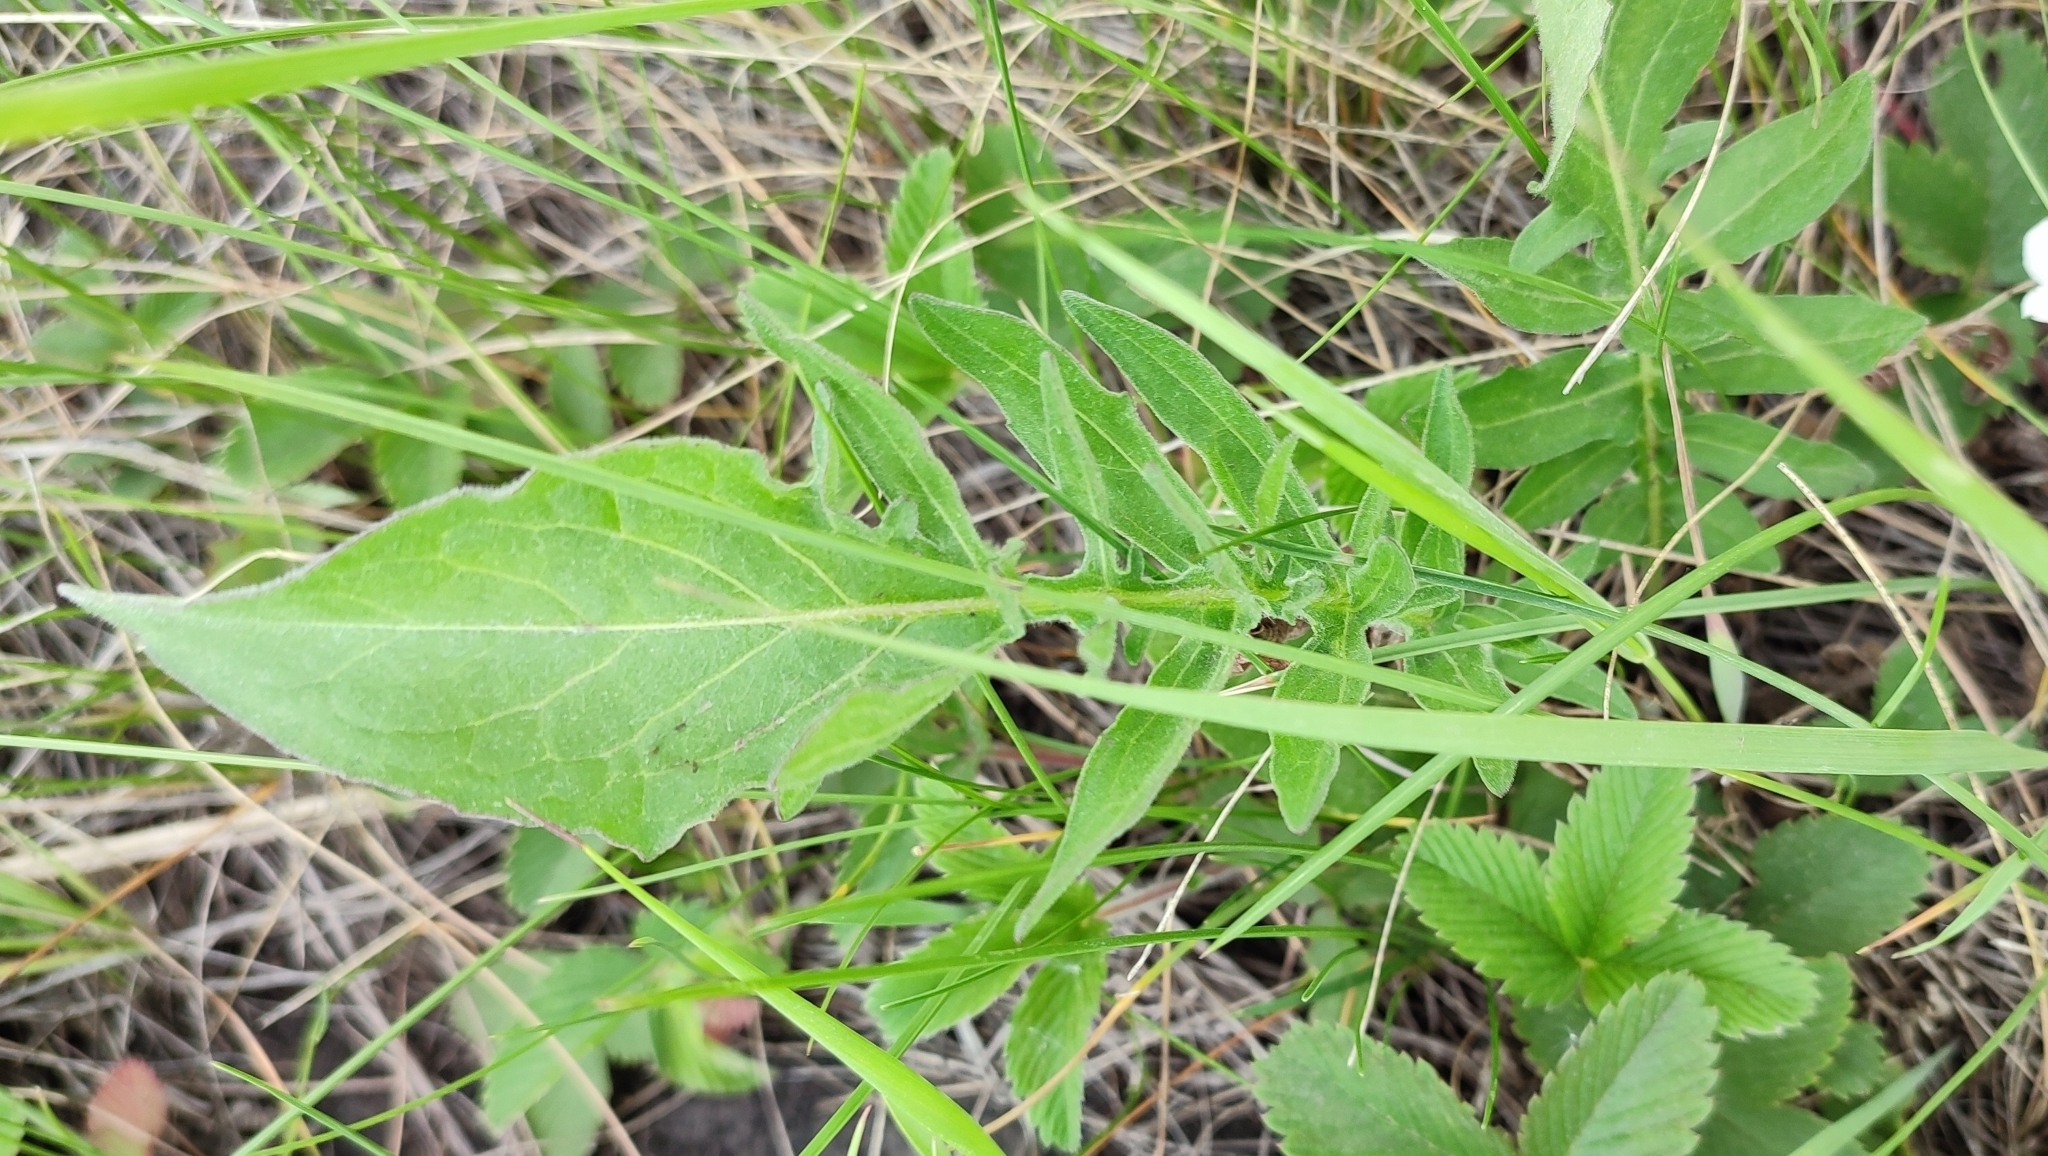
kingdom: Plantae
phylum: Tracheophyta
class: Magnoliopsida
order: Asterales
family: Asteraceae
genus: Centaurea
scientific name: Centaurea scabiosa
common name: Greater knapweed
